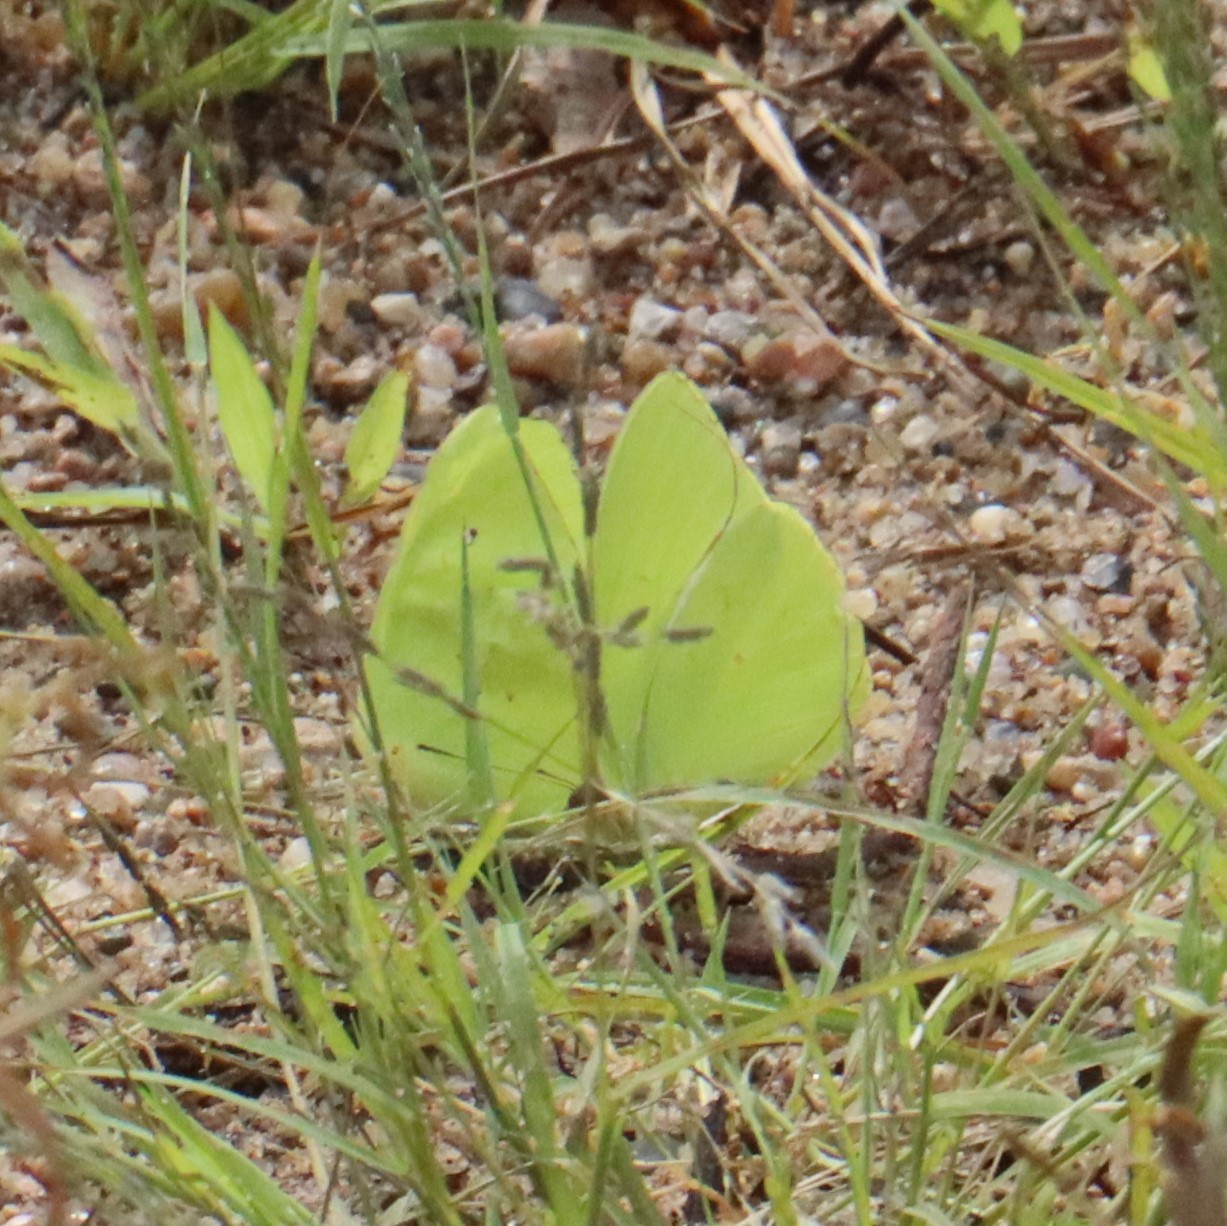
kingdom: Animalia
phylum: Arthropoda
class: Insecta
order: Lepidoptera
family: Pieridae
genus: Phoebis
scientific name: Phoebis sennae
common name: Cloudless sulphur
